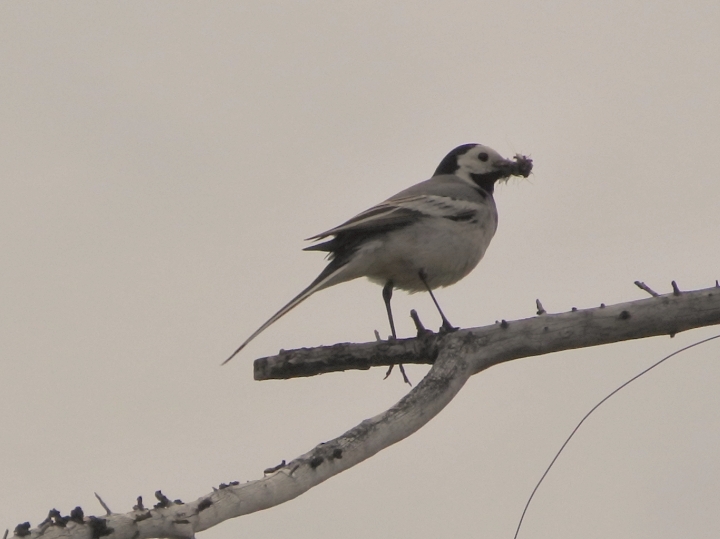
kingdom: Animalia
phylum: Chordata
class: Aves
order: Passeriformes
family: Motacillidae
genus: Motacilla
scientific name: Motacilla alba
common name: White wagtail
